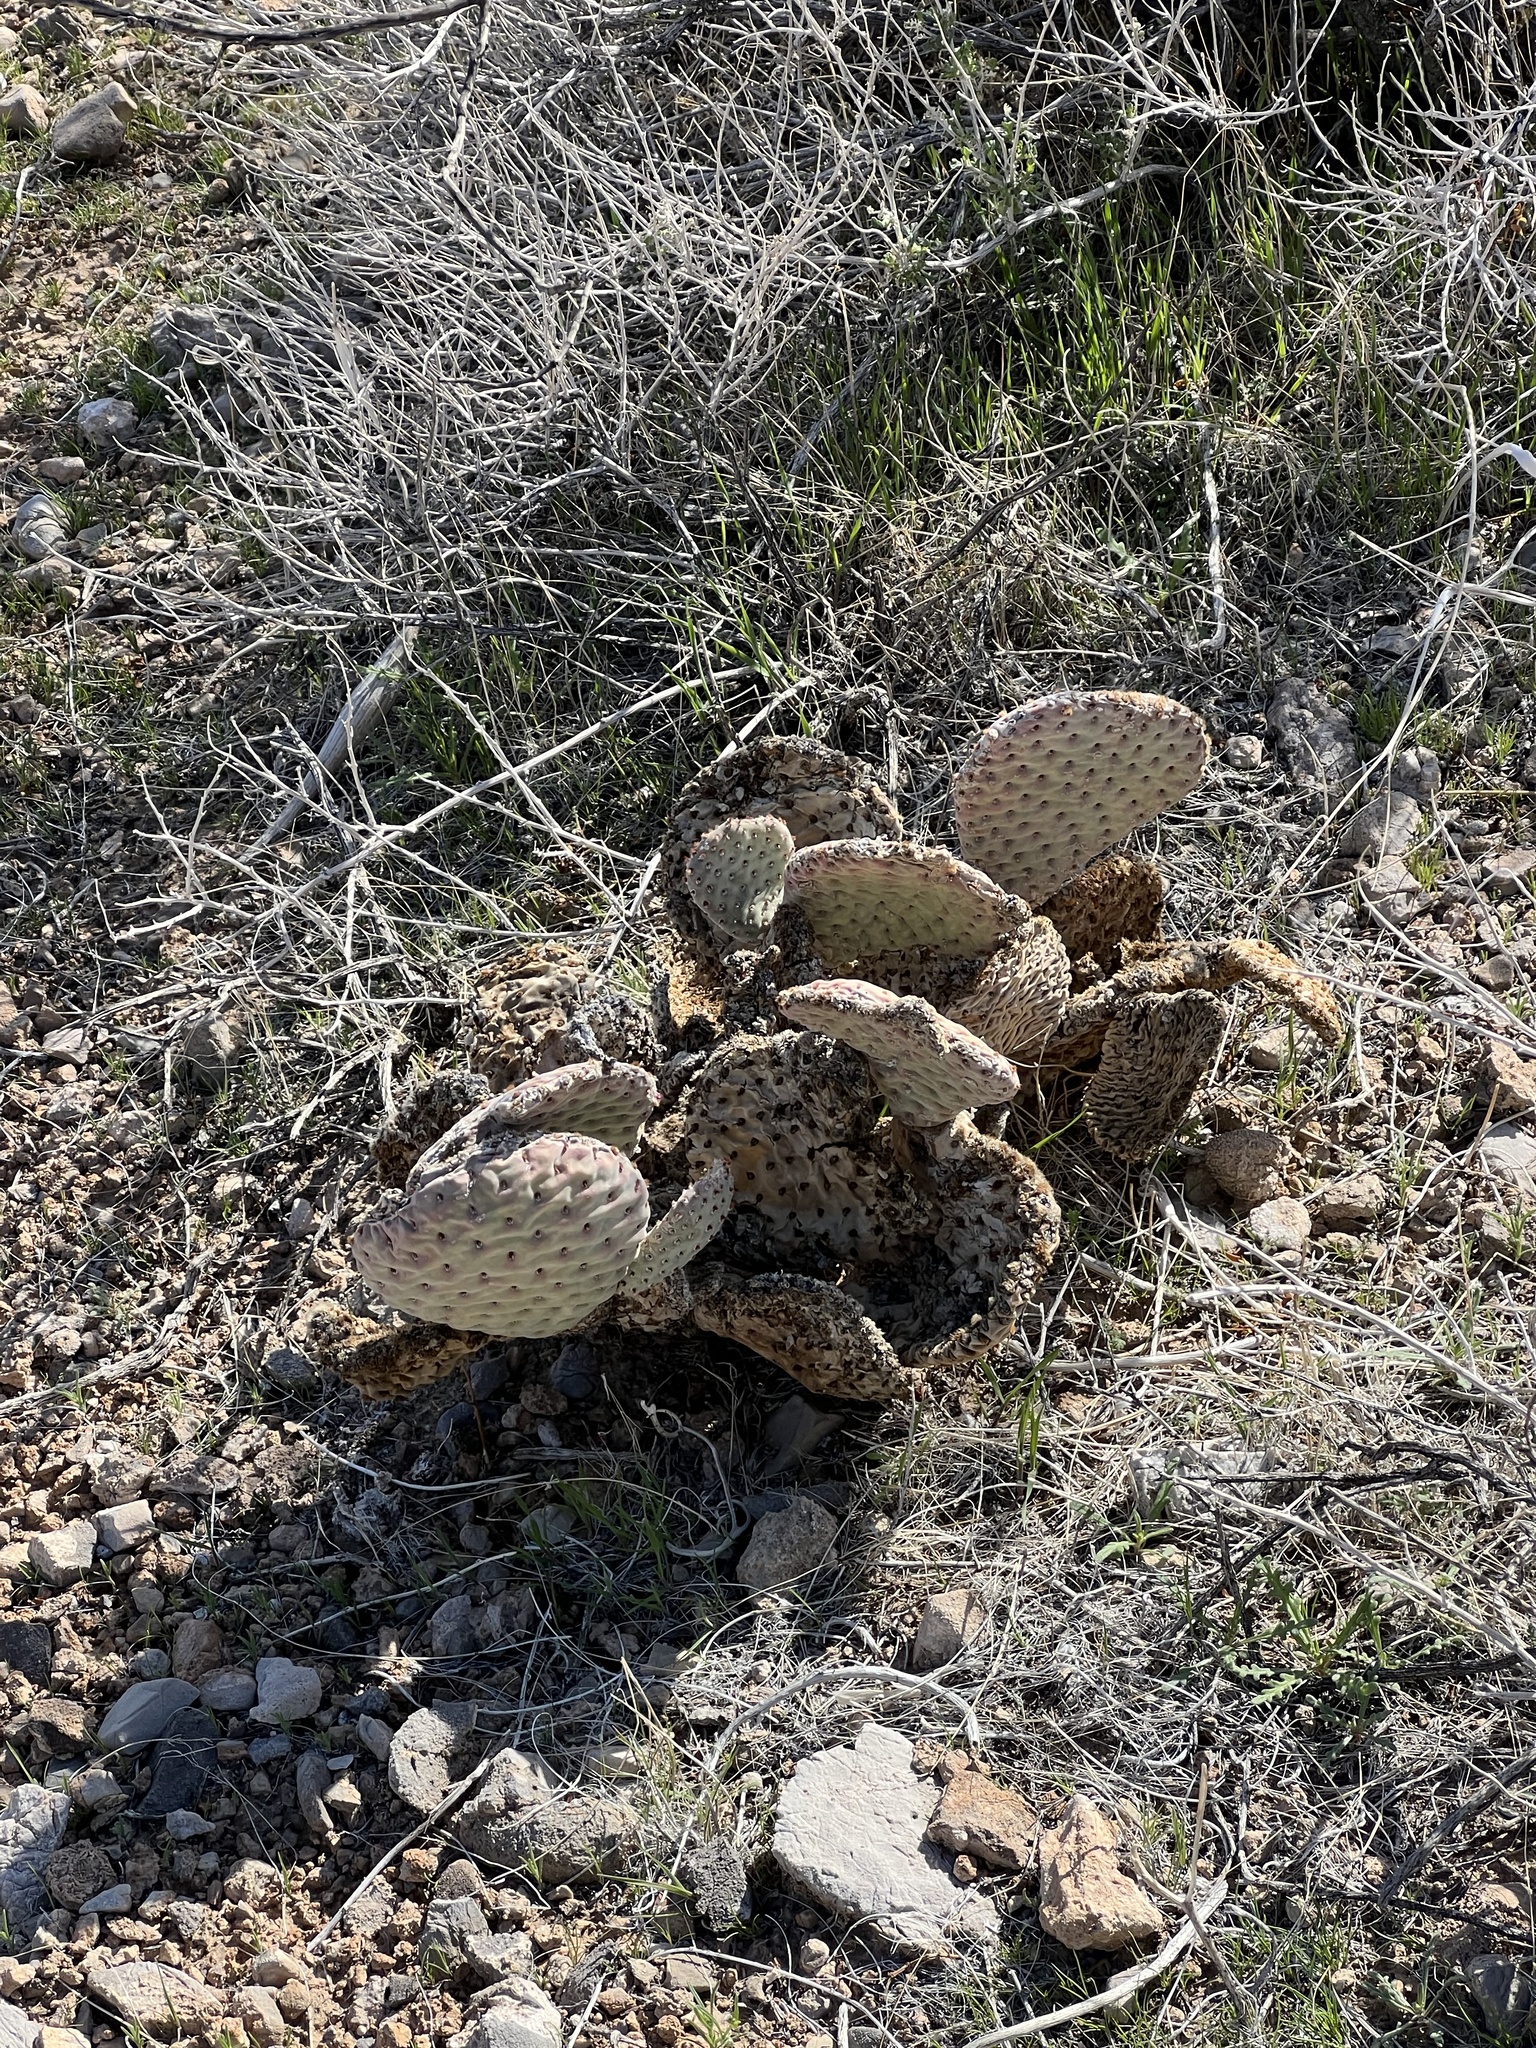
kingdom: Plantae
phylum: Tracheophyta
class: Magnoliopsida
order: Caryophyllales
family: Cactaceae
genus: Opuntia
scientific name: Opuntia basilaris
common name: Beavertail prickly-pear
